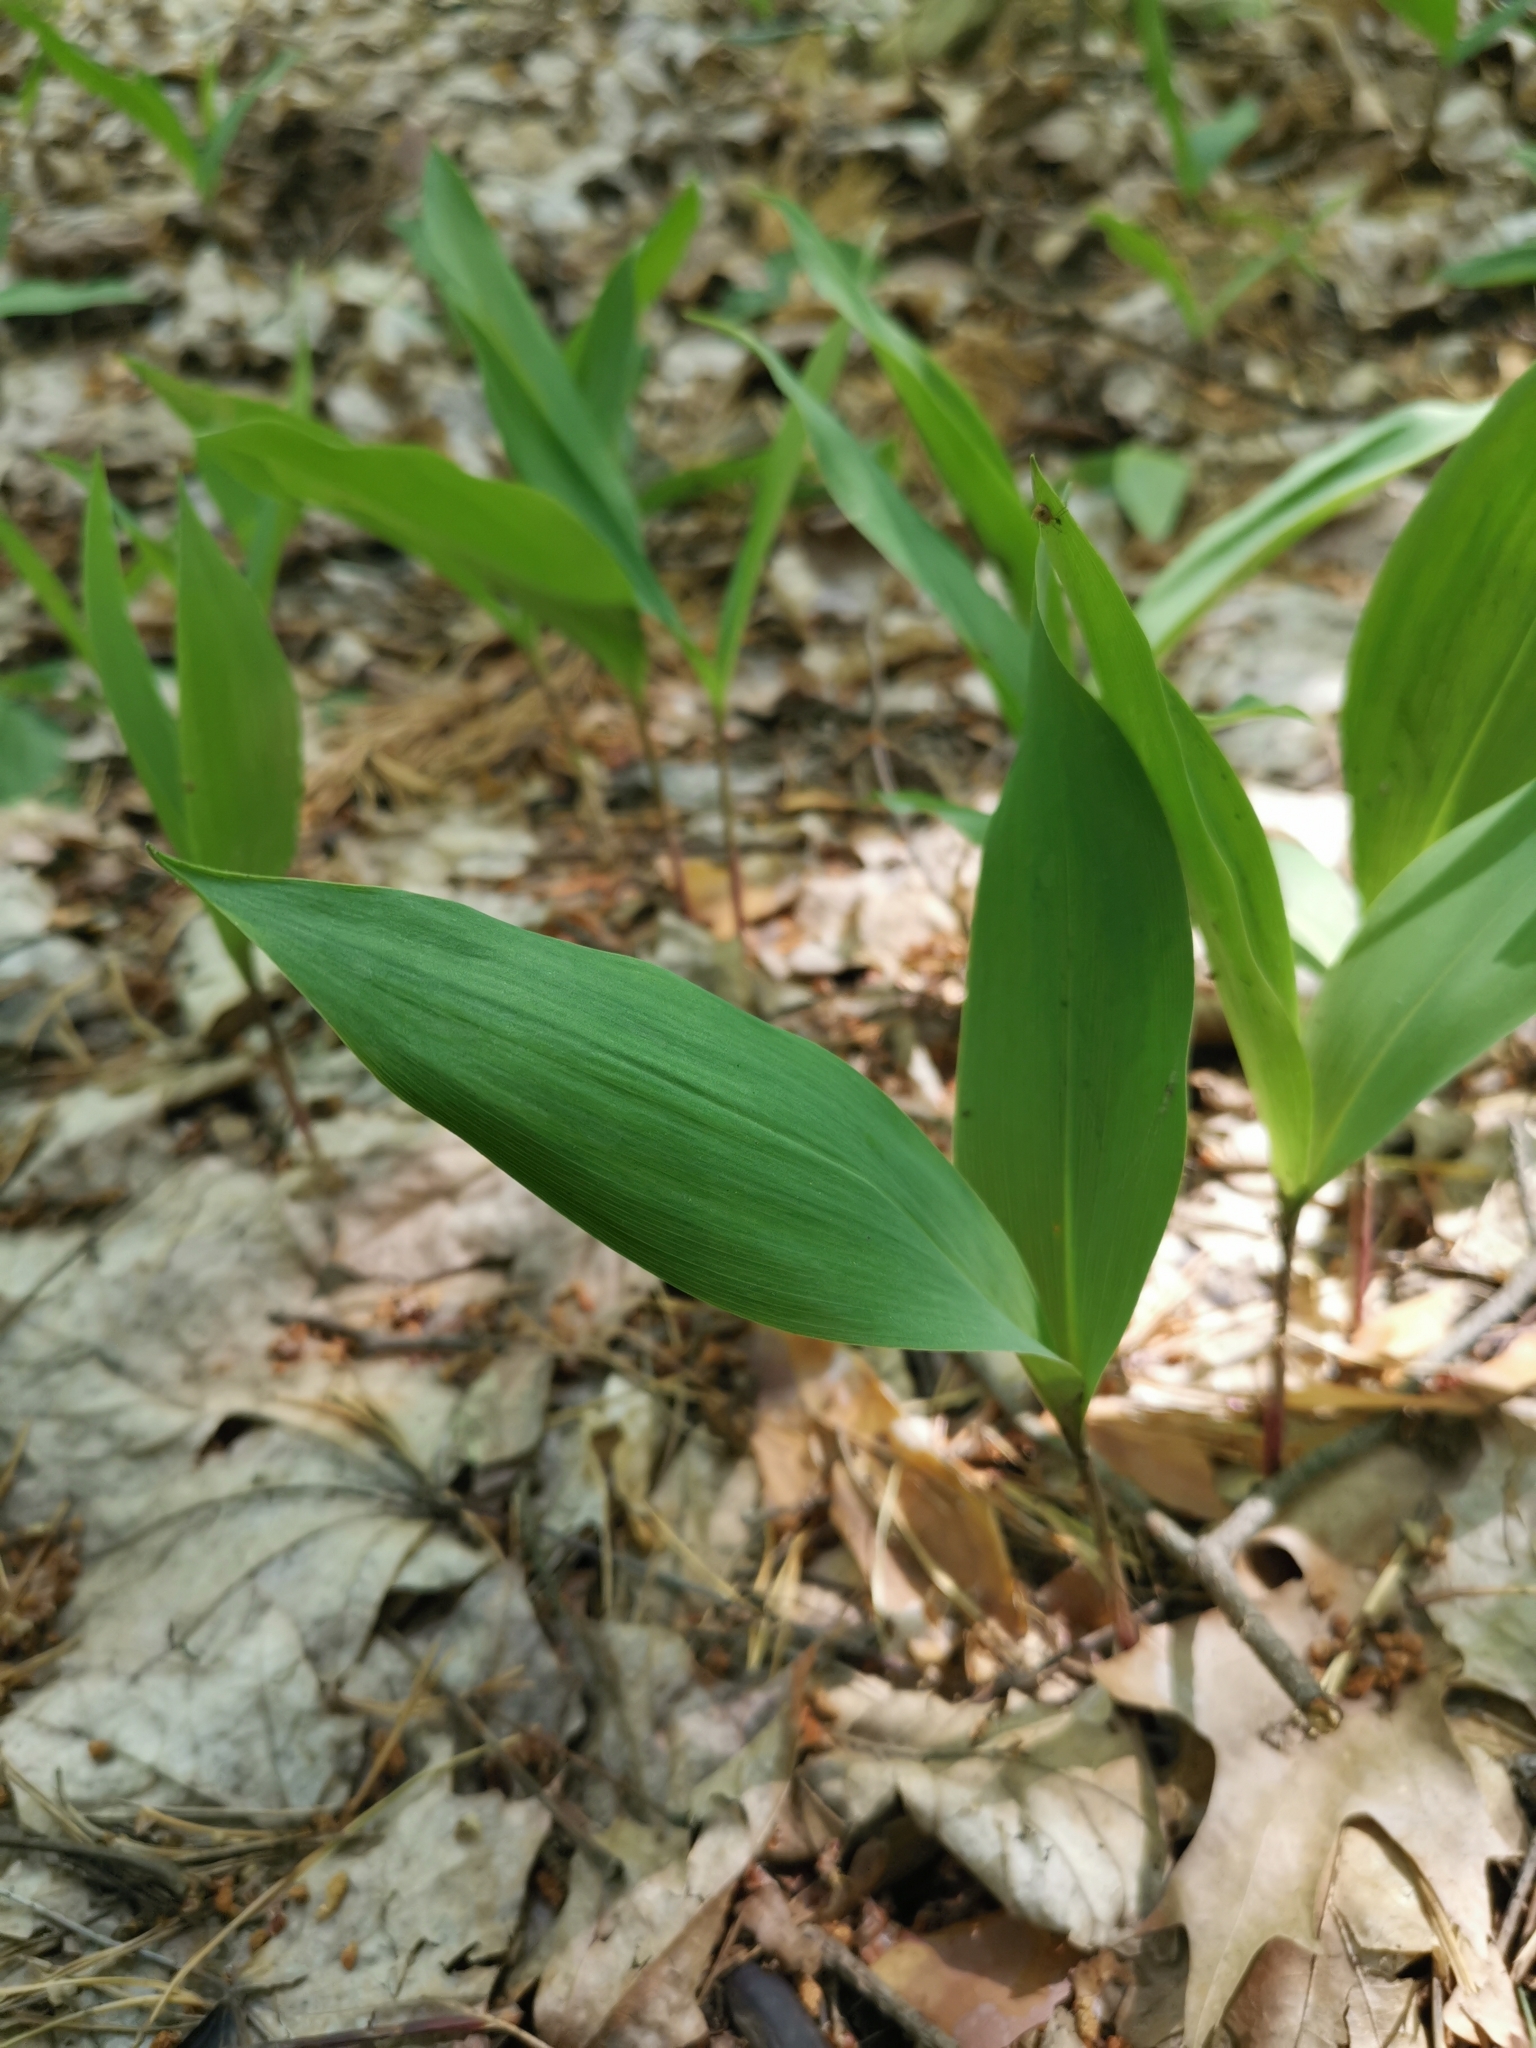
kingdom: Plantae
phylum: Tracheophyta
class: Liliopsida
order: Asparagales
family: Asparagaceae
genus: Convallaria
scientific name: Convallaria majalis
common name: Lily-of-the-valley
